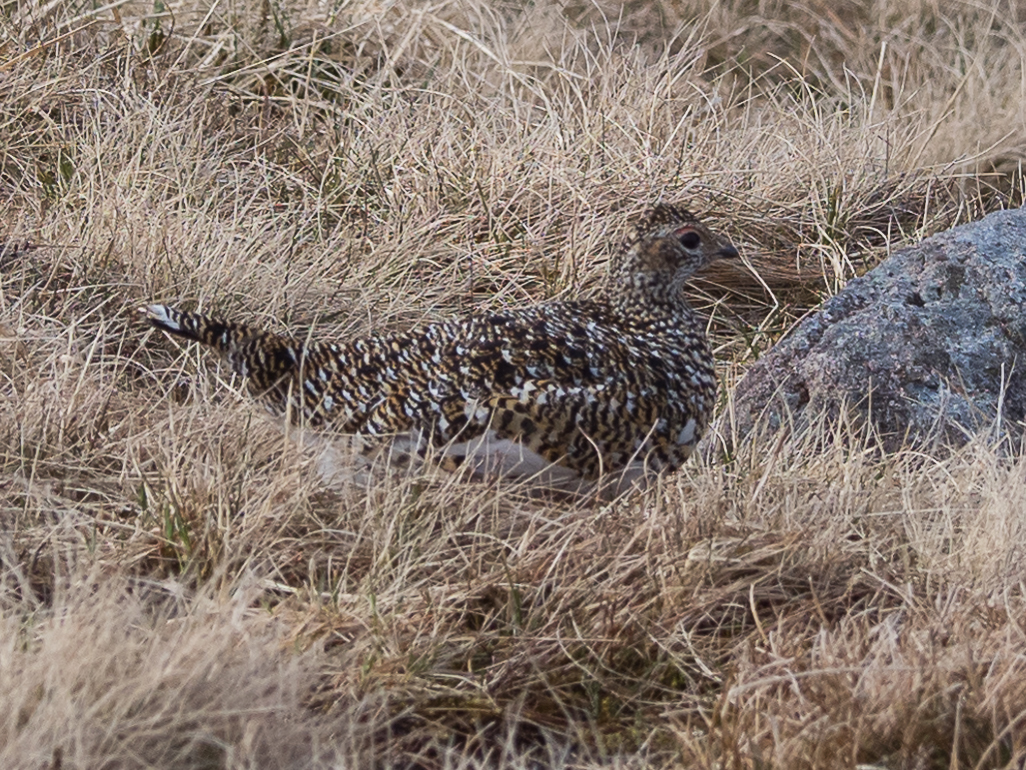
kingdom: Animalia
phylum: Chordata
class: Aves
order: Galliformes
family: Phasianidae
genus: Lagopus
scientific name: Lagopus muta
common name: Rock ptarmigan
